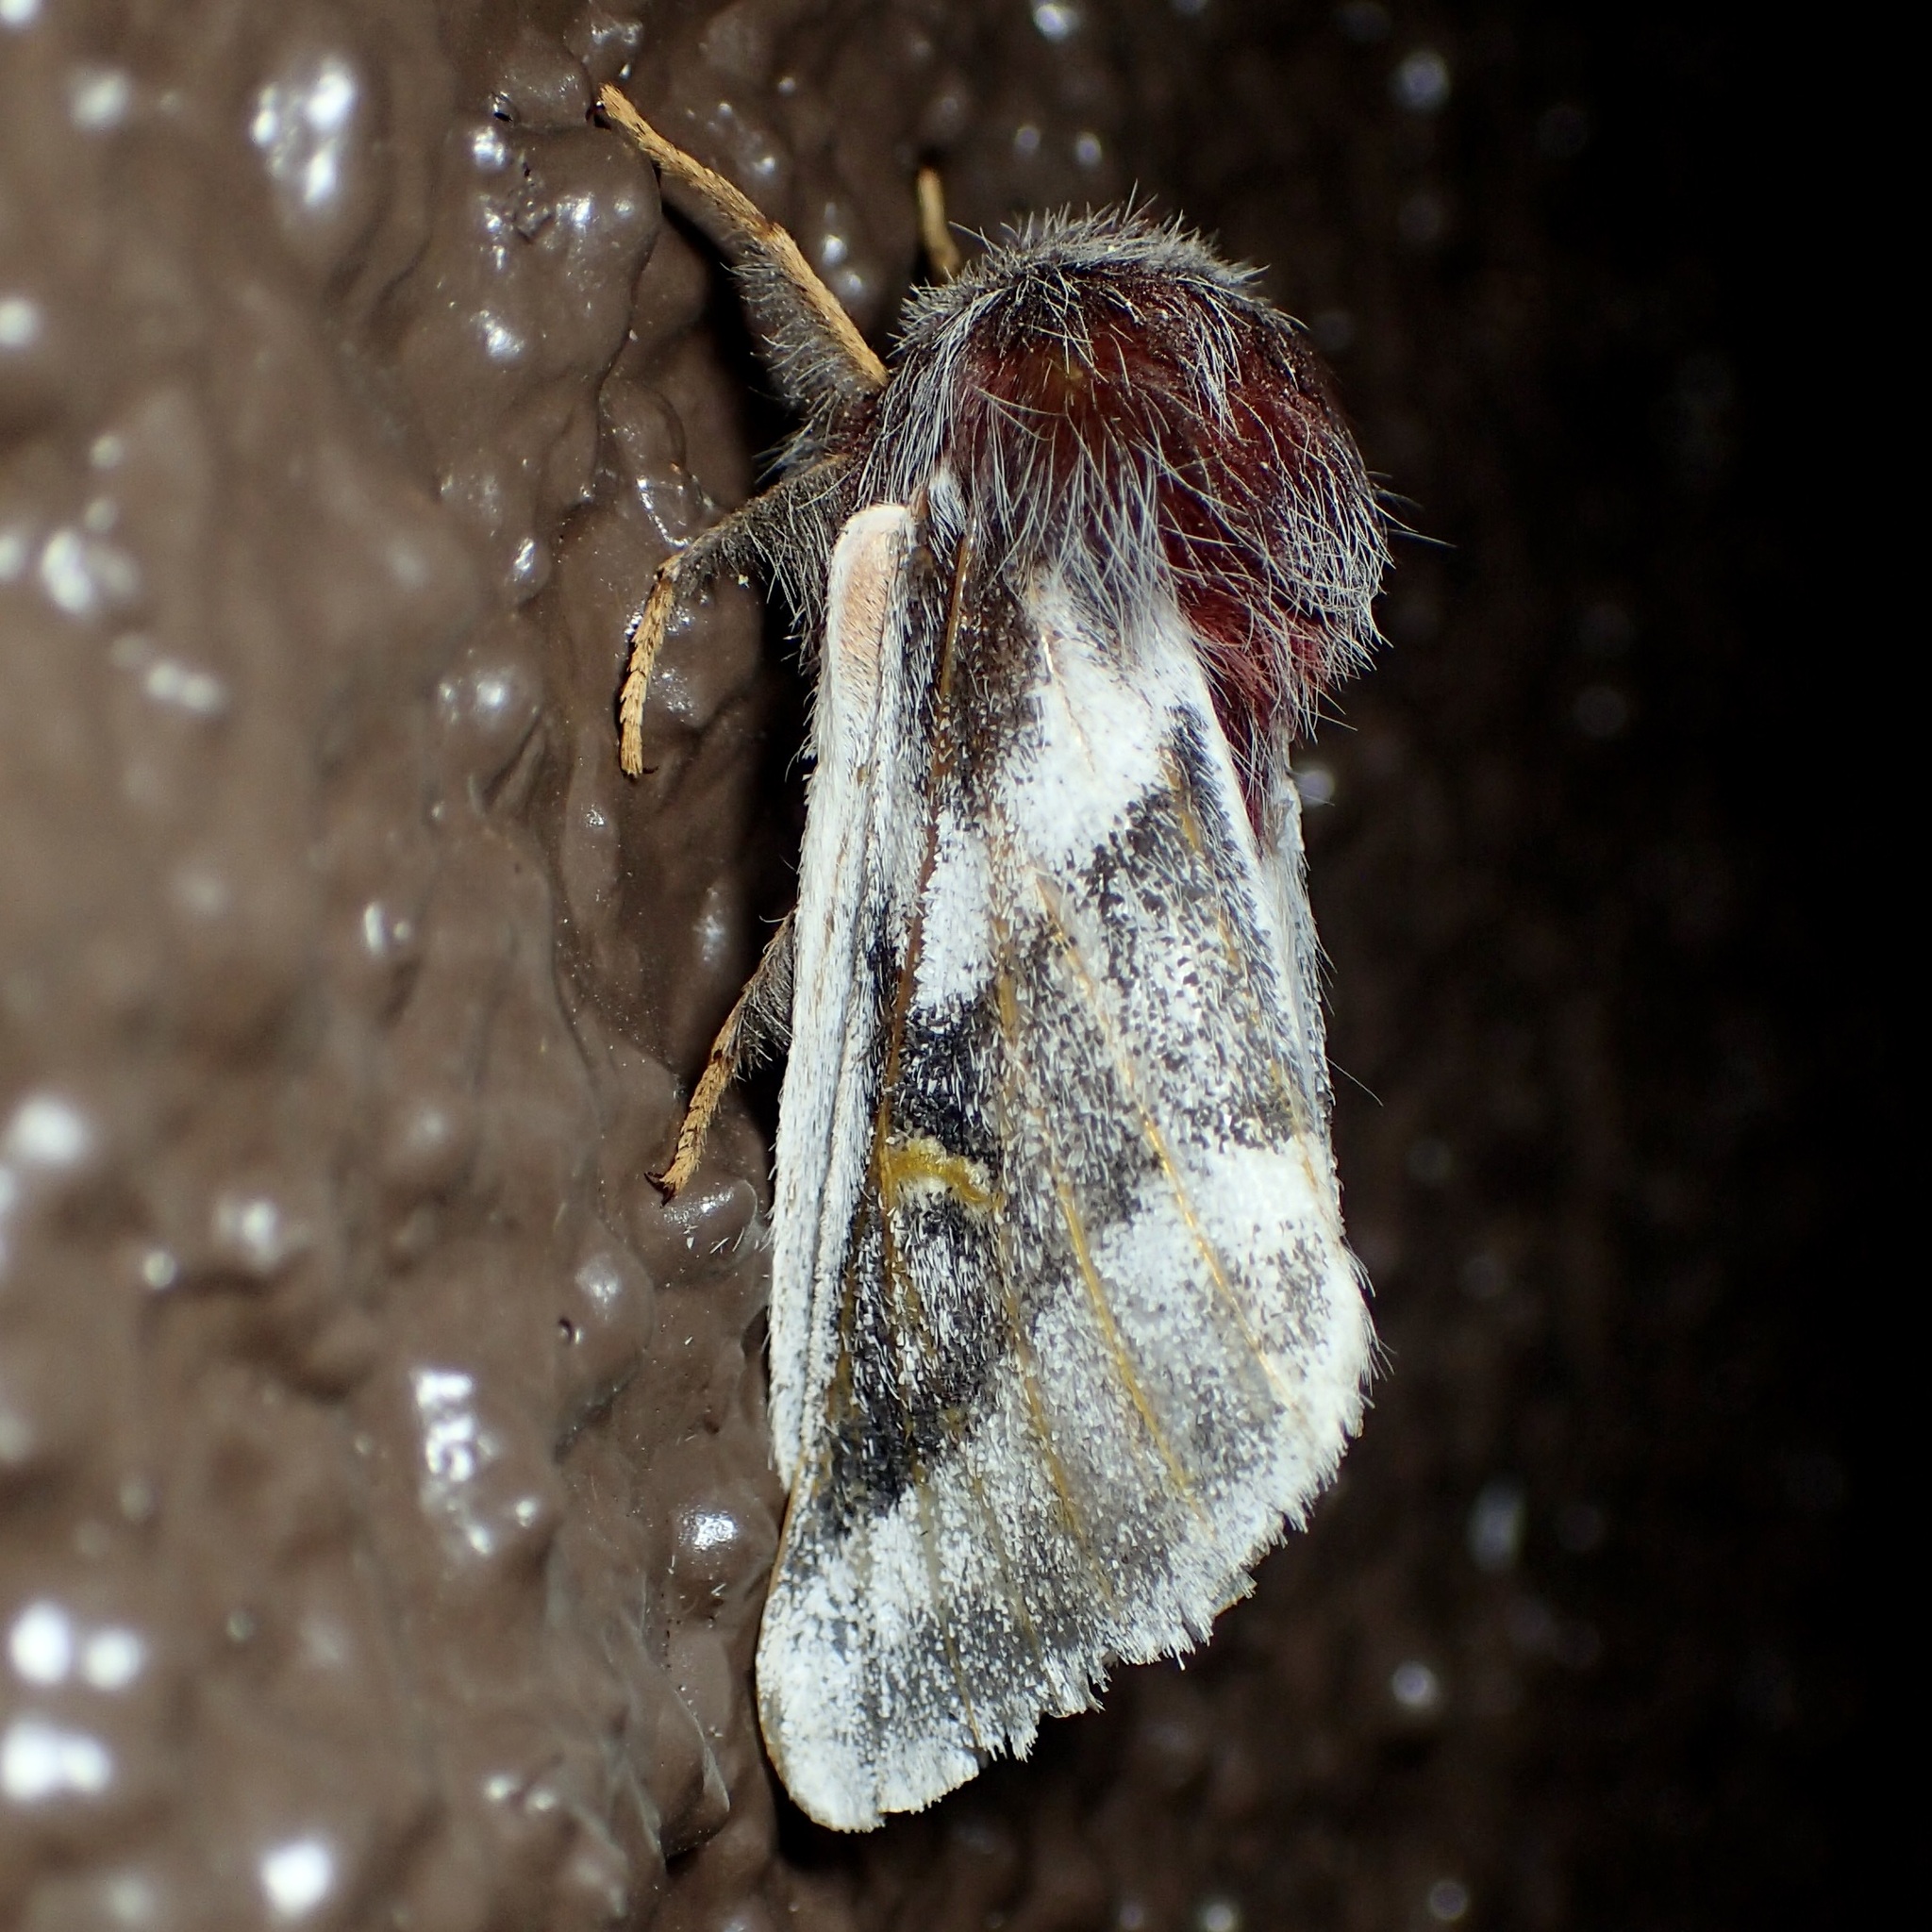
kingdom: Animalia
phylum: Arthropoda
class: Insecta
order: Lepidoptera
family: Saturniidae
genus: Hemileuca
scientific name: Hemileuca tricolor
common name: Tricolor buckmoth
